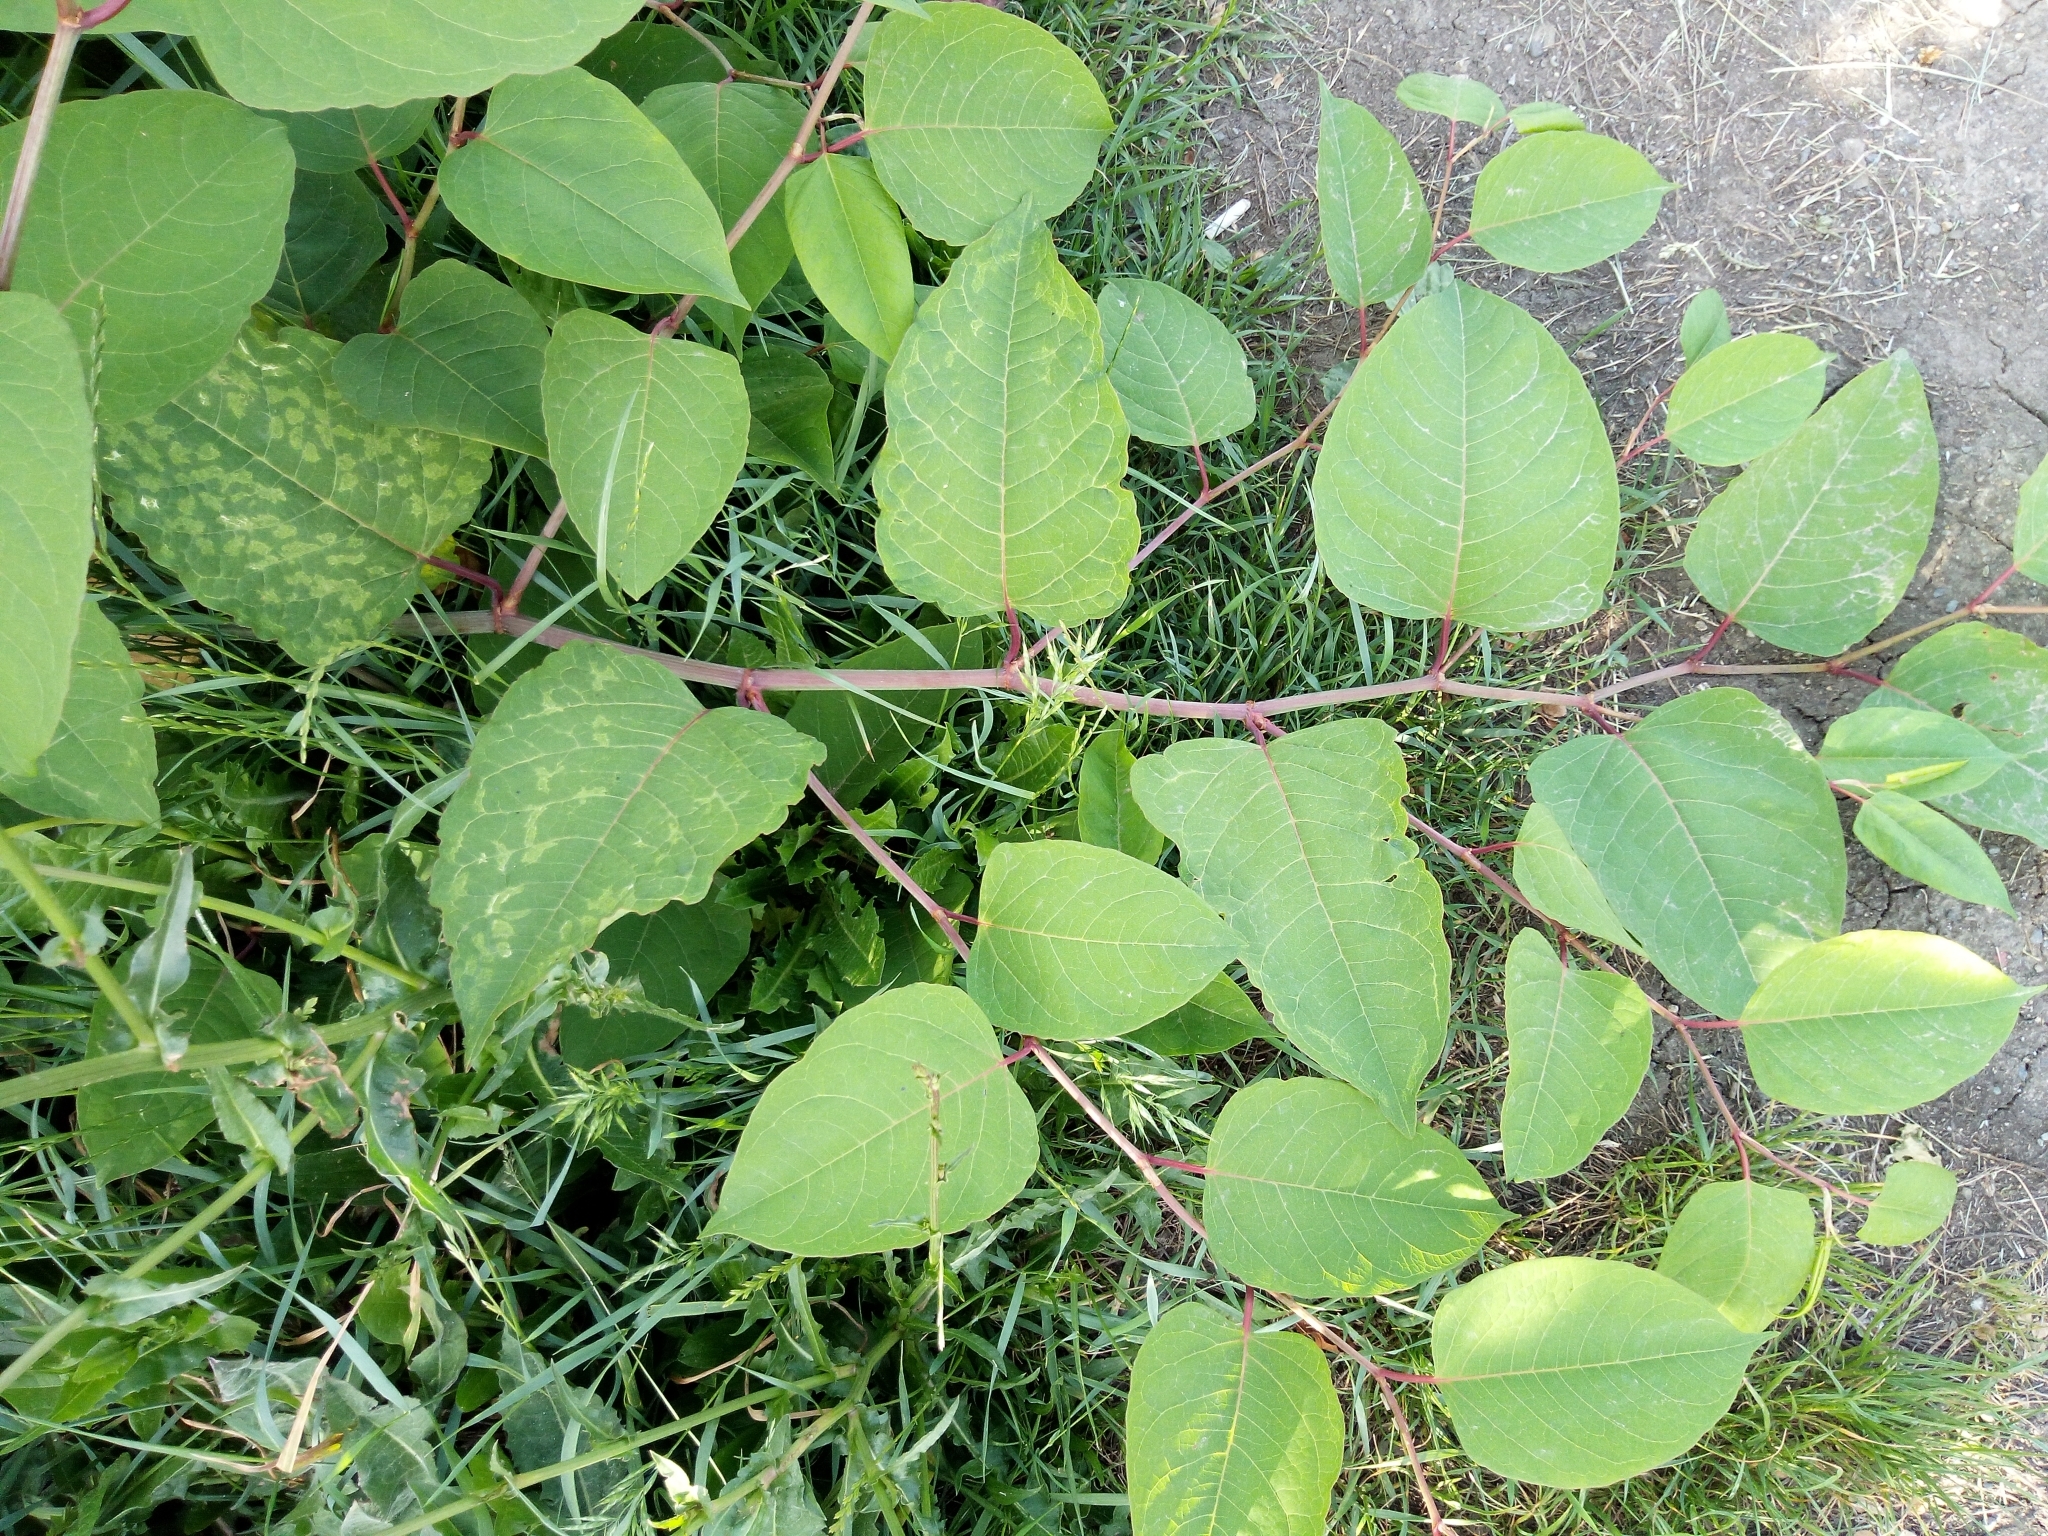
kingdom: Plantae
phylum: Tracheophyta
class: Magnoliopsida
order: Caryophyllales
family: Polygonaceae
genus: Reynoutria
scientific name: Reynoutria japonica
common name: Japanese knotweed
